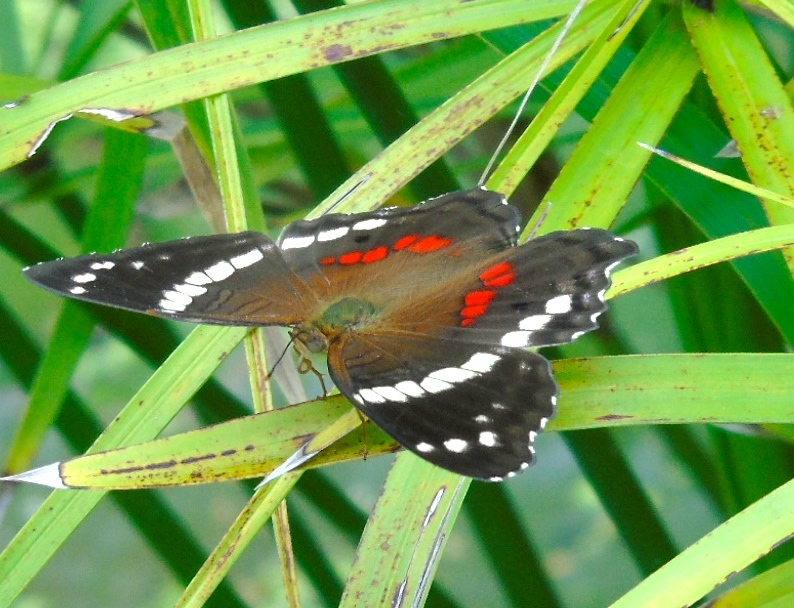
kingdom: Animalia
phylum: Arthropoda
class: Insecta
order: Lepidoptera
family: Nymphalidae
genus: Anartia
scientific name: Anartia fatima
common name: Banded peacock
